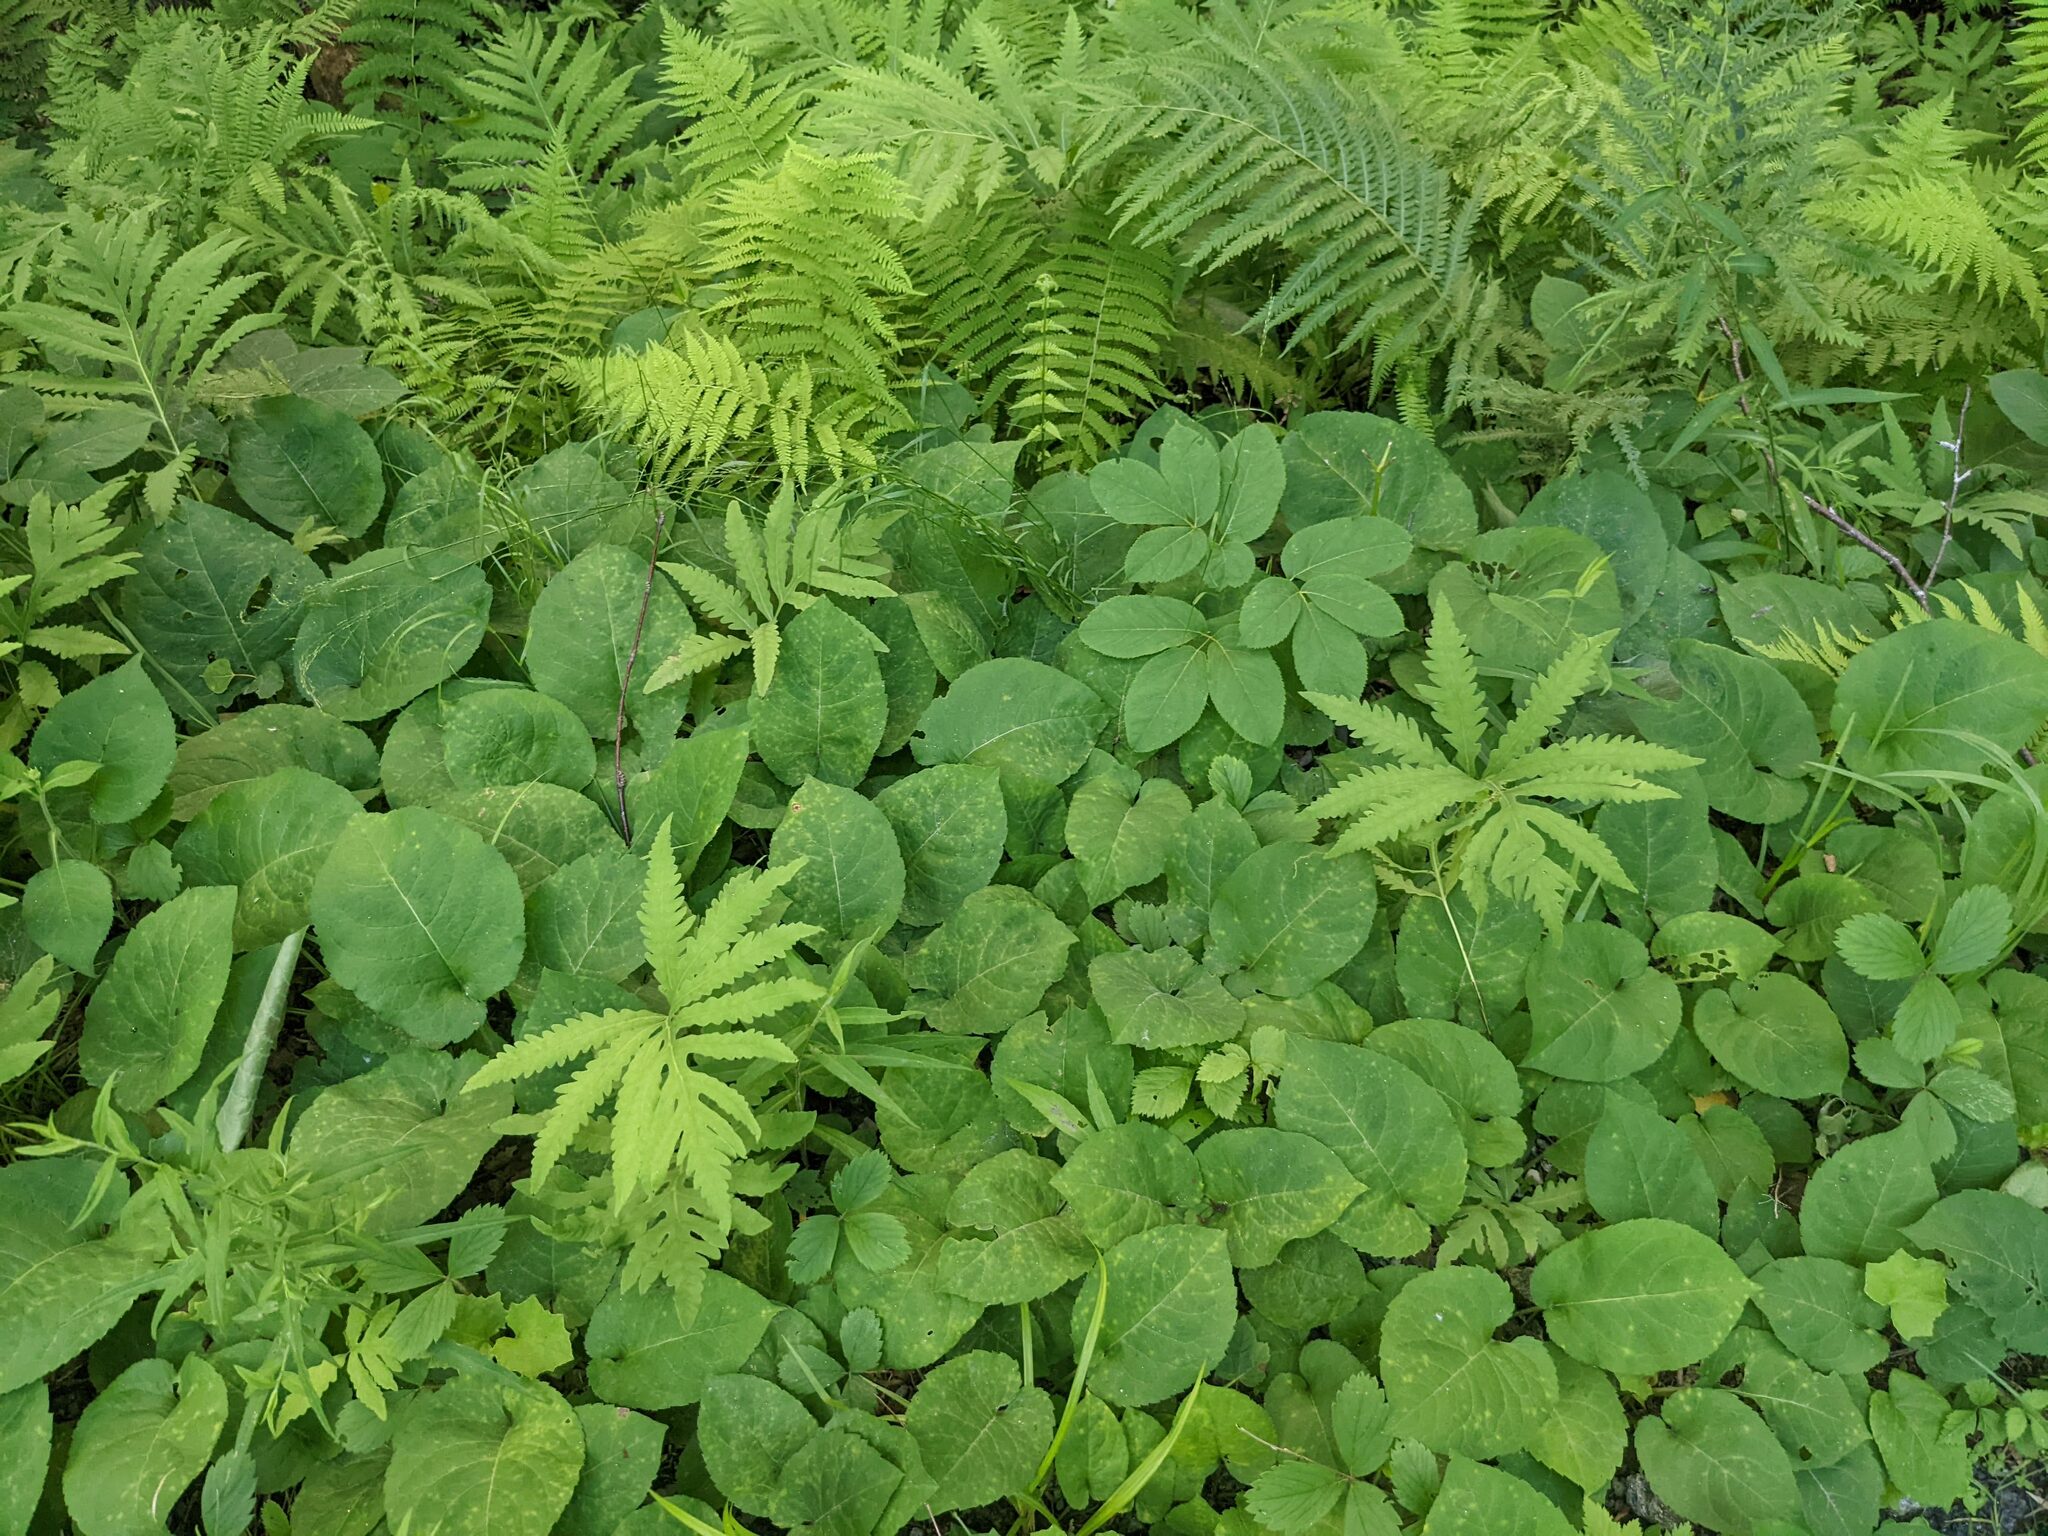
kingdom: Plantae
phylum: Tracheophyta
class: Polypodiopsida
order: Polypodiales
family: Onocleaceae
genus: Onoclea
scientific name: Onoclea sensibilis
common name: Sensitive fern
